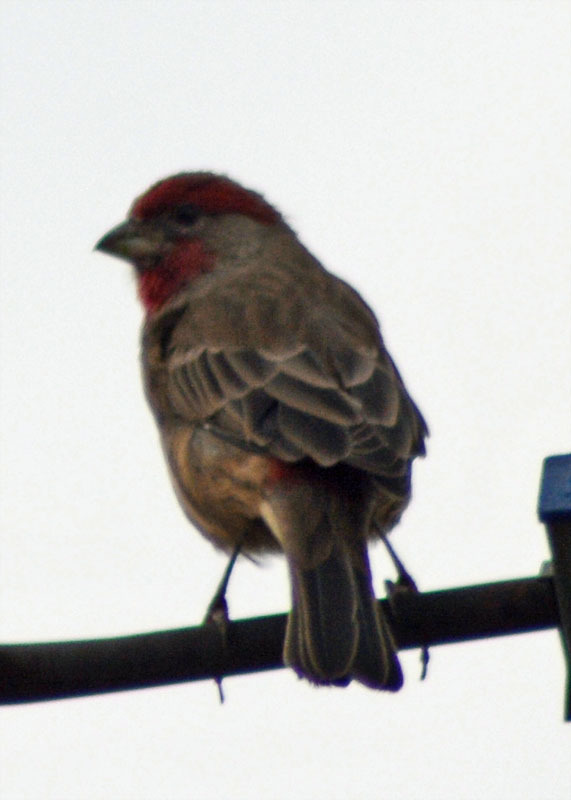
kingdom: Animalia
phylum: Chordata
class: Aves
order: Passeriformes
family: Fringillidae
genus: Haemorhous
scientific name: Haemorhous mexicanus
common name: House finch
